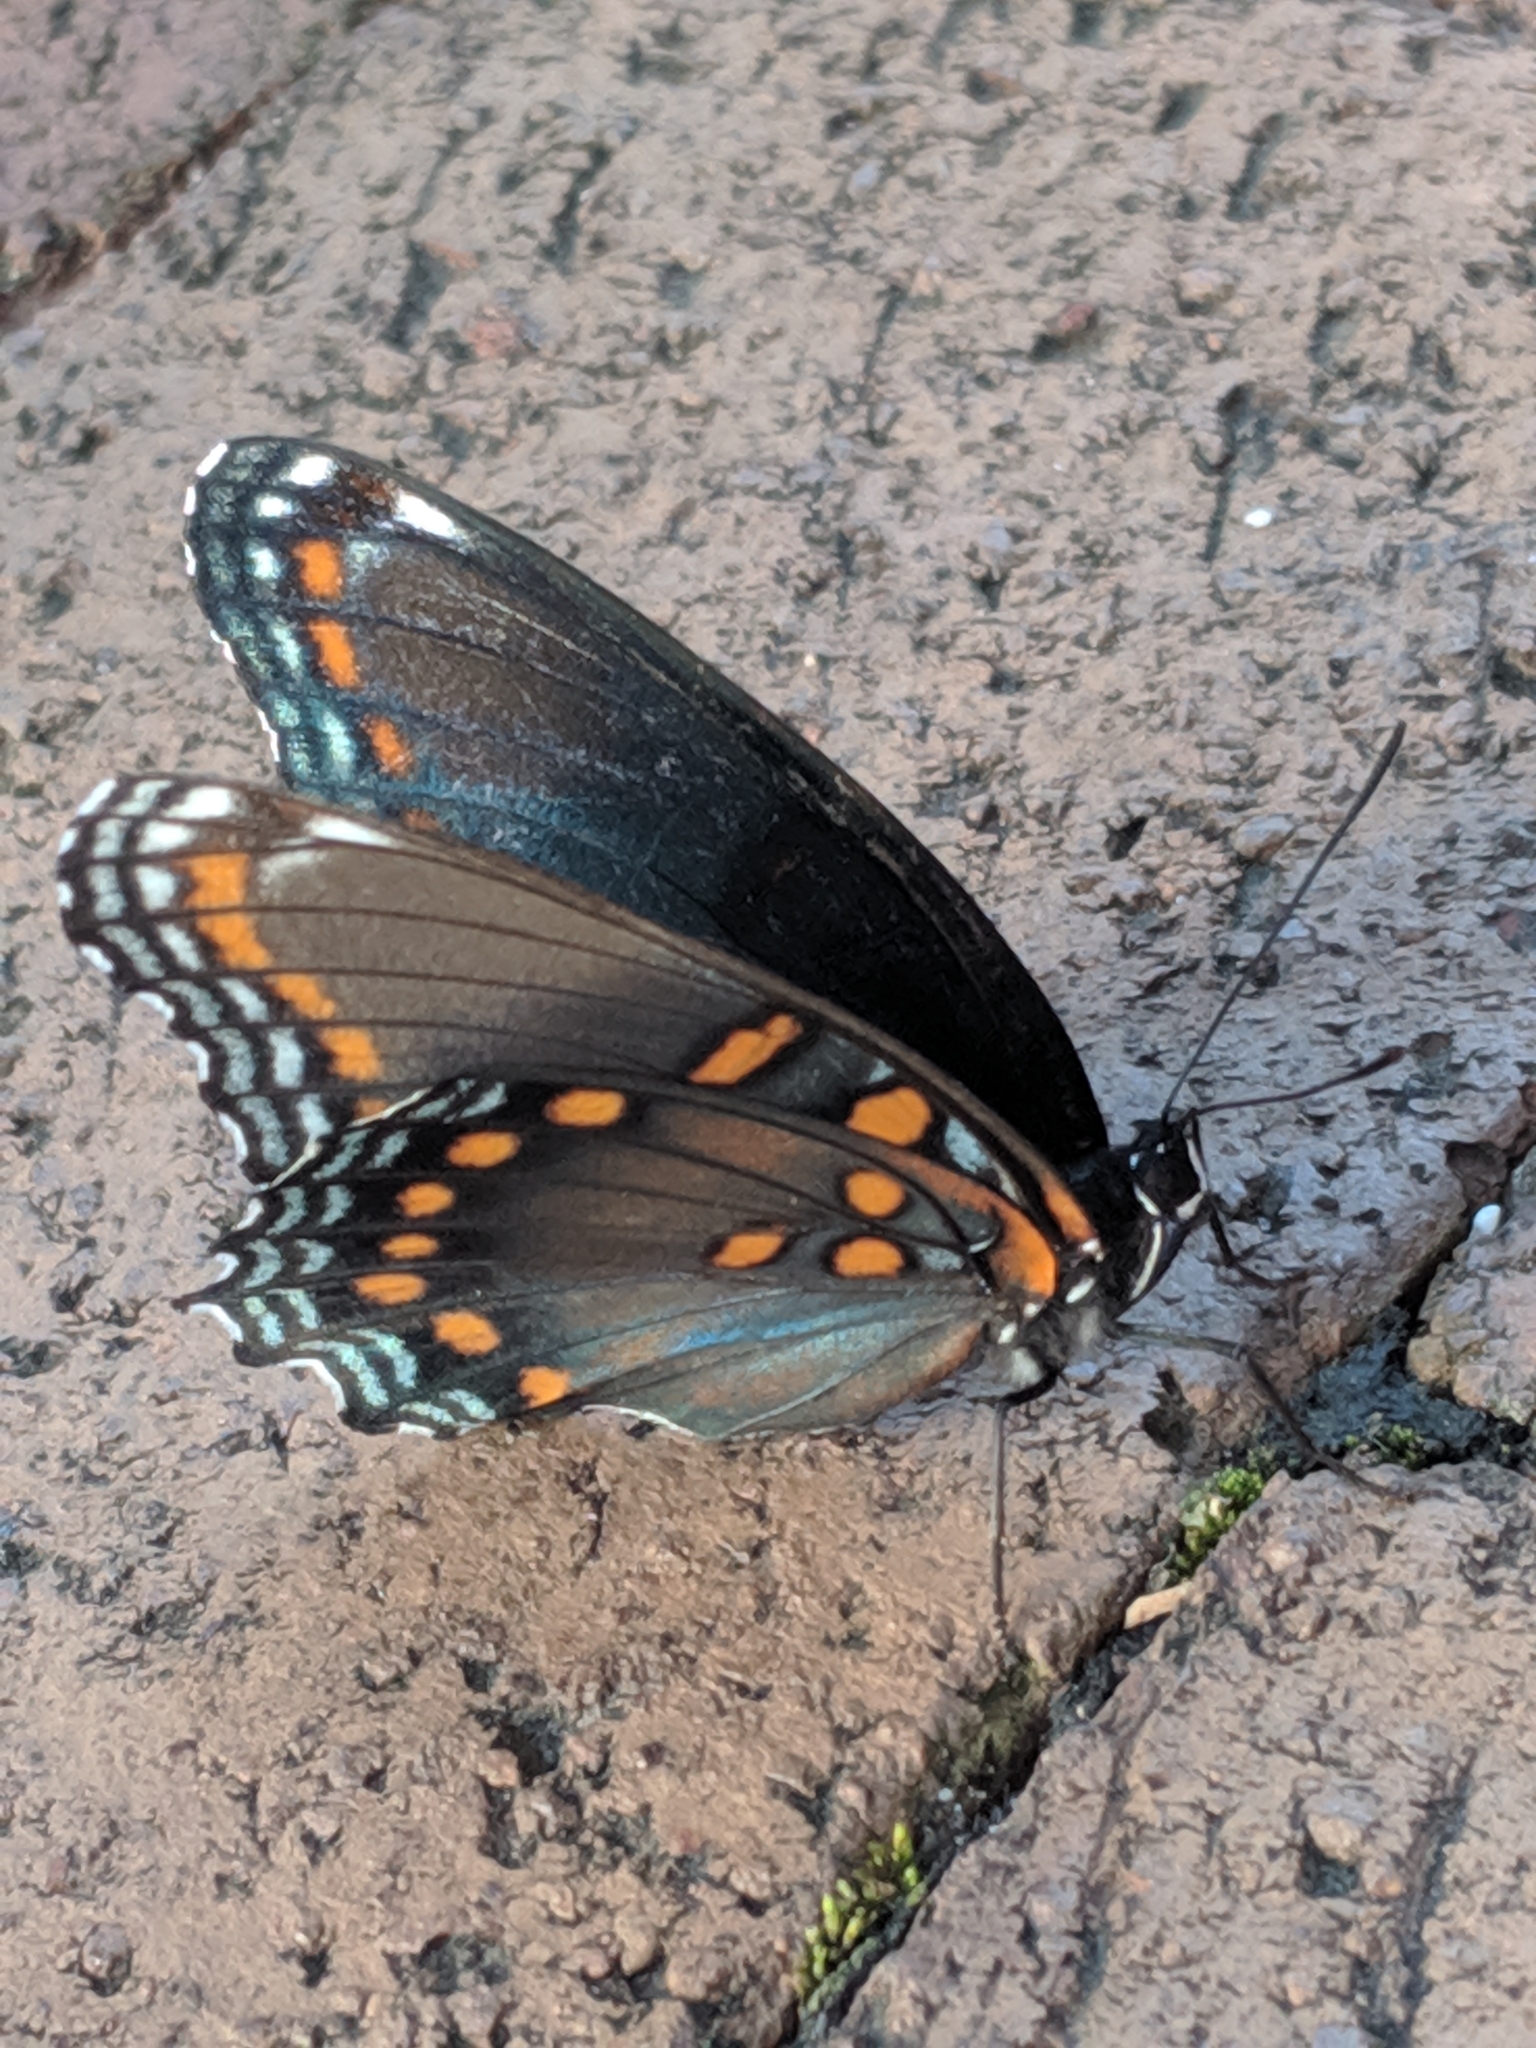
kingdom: Animalia
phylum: Arthropoda
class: Insecta
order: Lepidoptera
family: Nymphalidae
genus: Limenitis
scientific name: Limenitis astyanax
